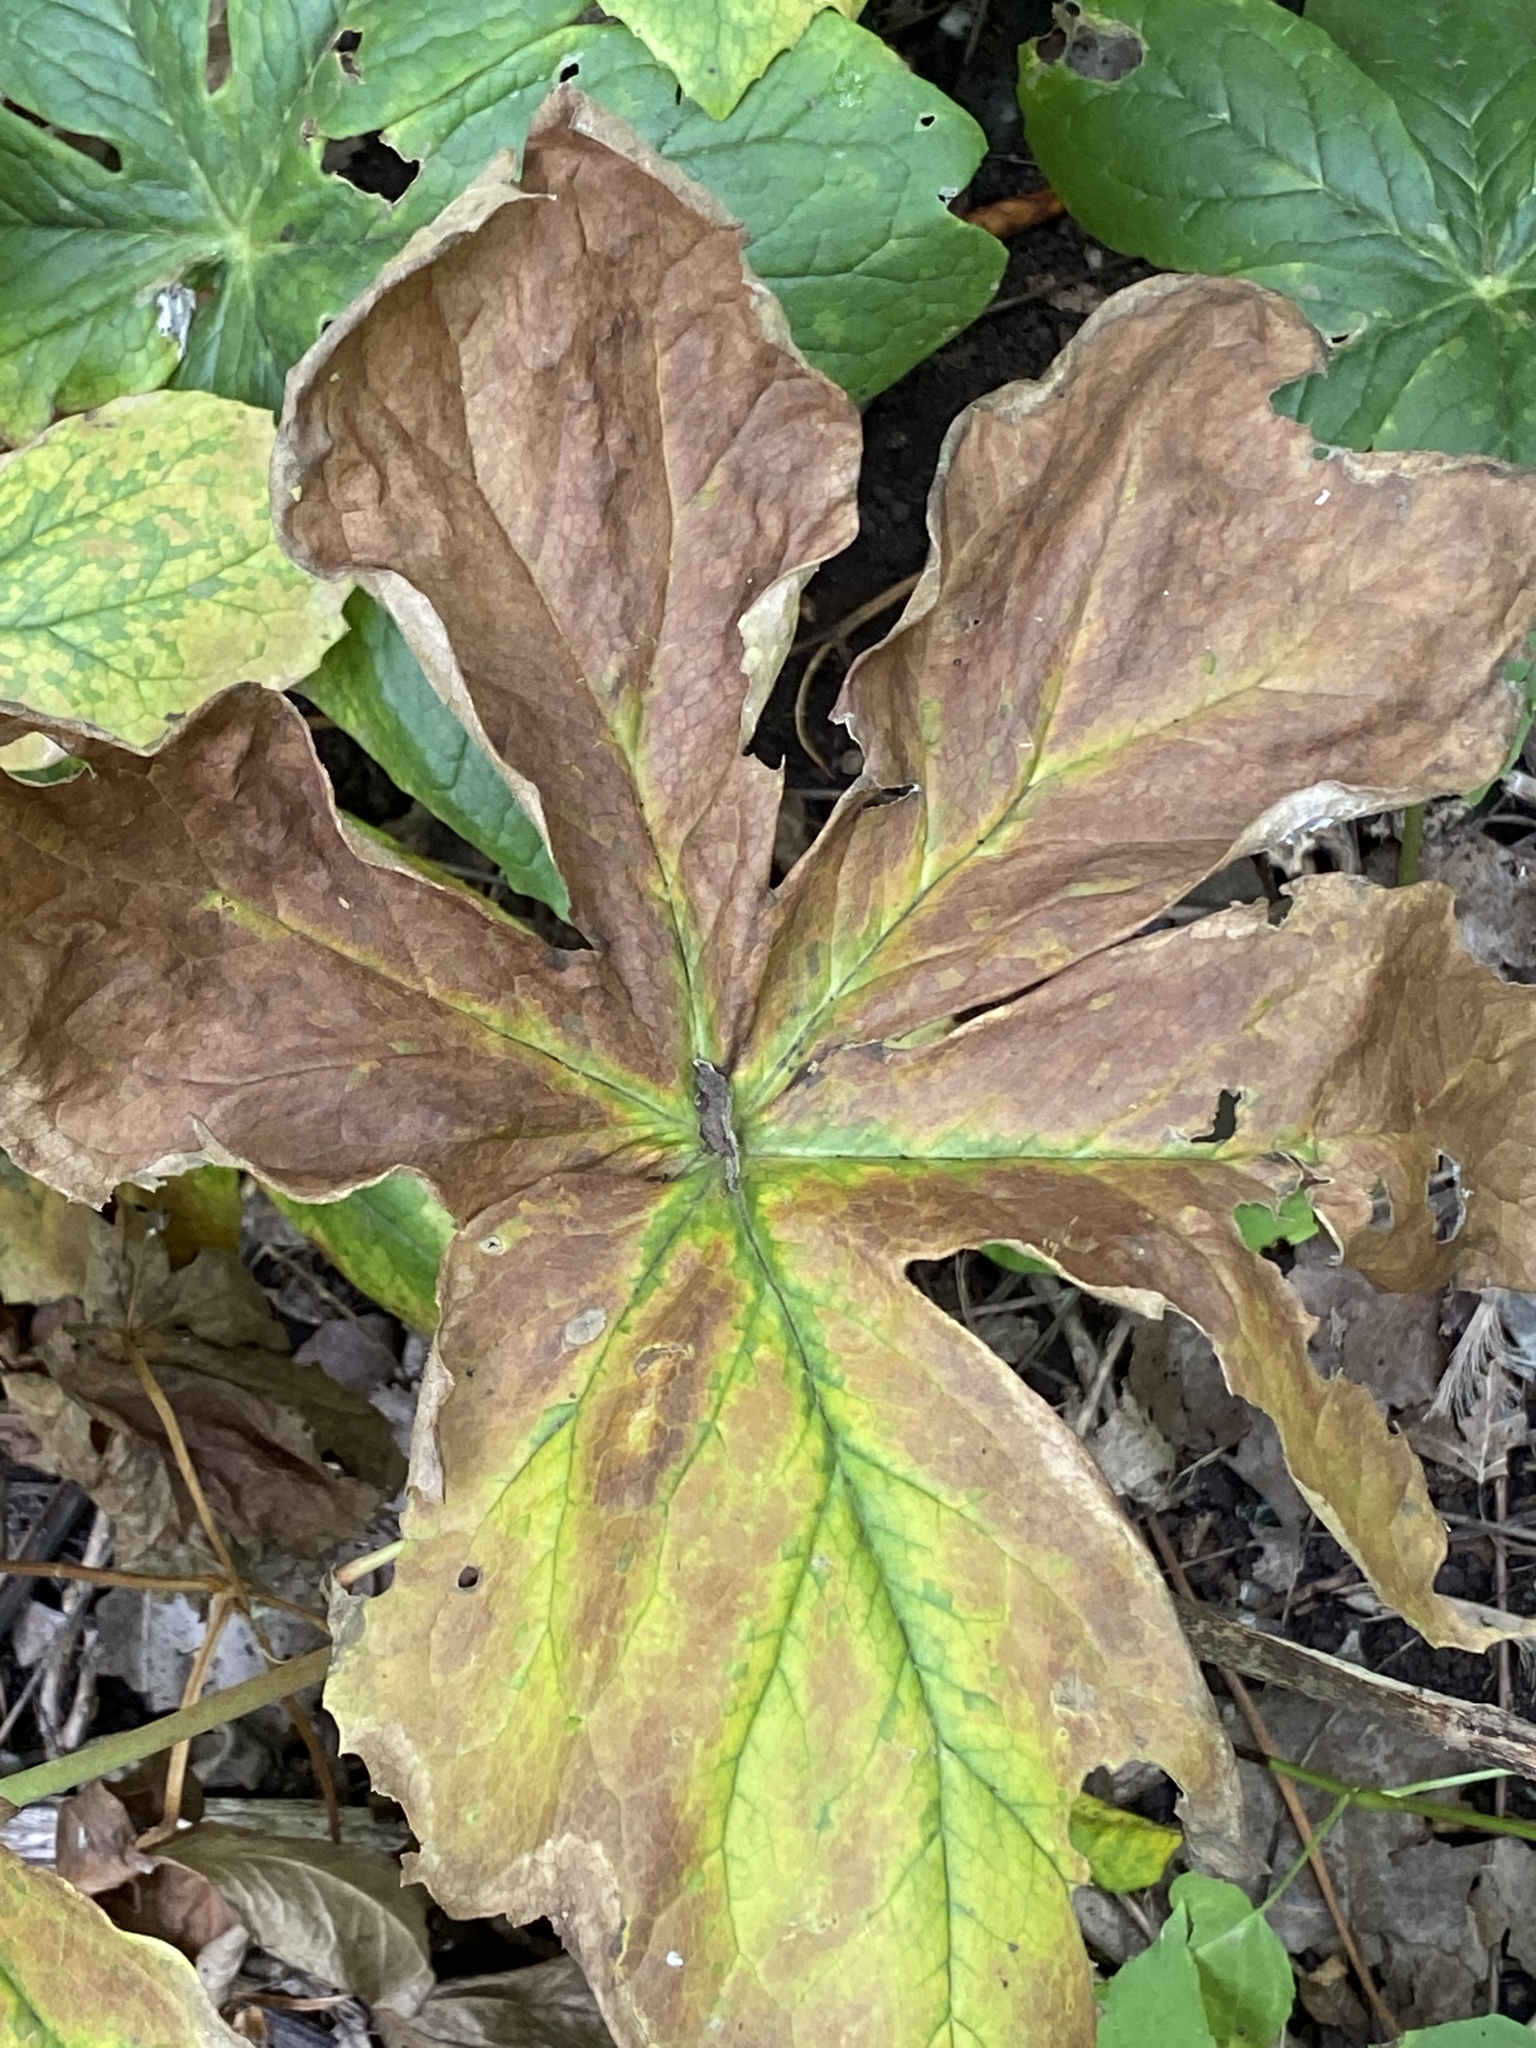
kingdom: Plantae
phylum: Tracheophyta
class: Magnoliopsida
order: Ranunculales
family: Berberidaceae
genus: Podophyllum
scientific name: Podophyllum peltatum
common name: Wild mandrake
